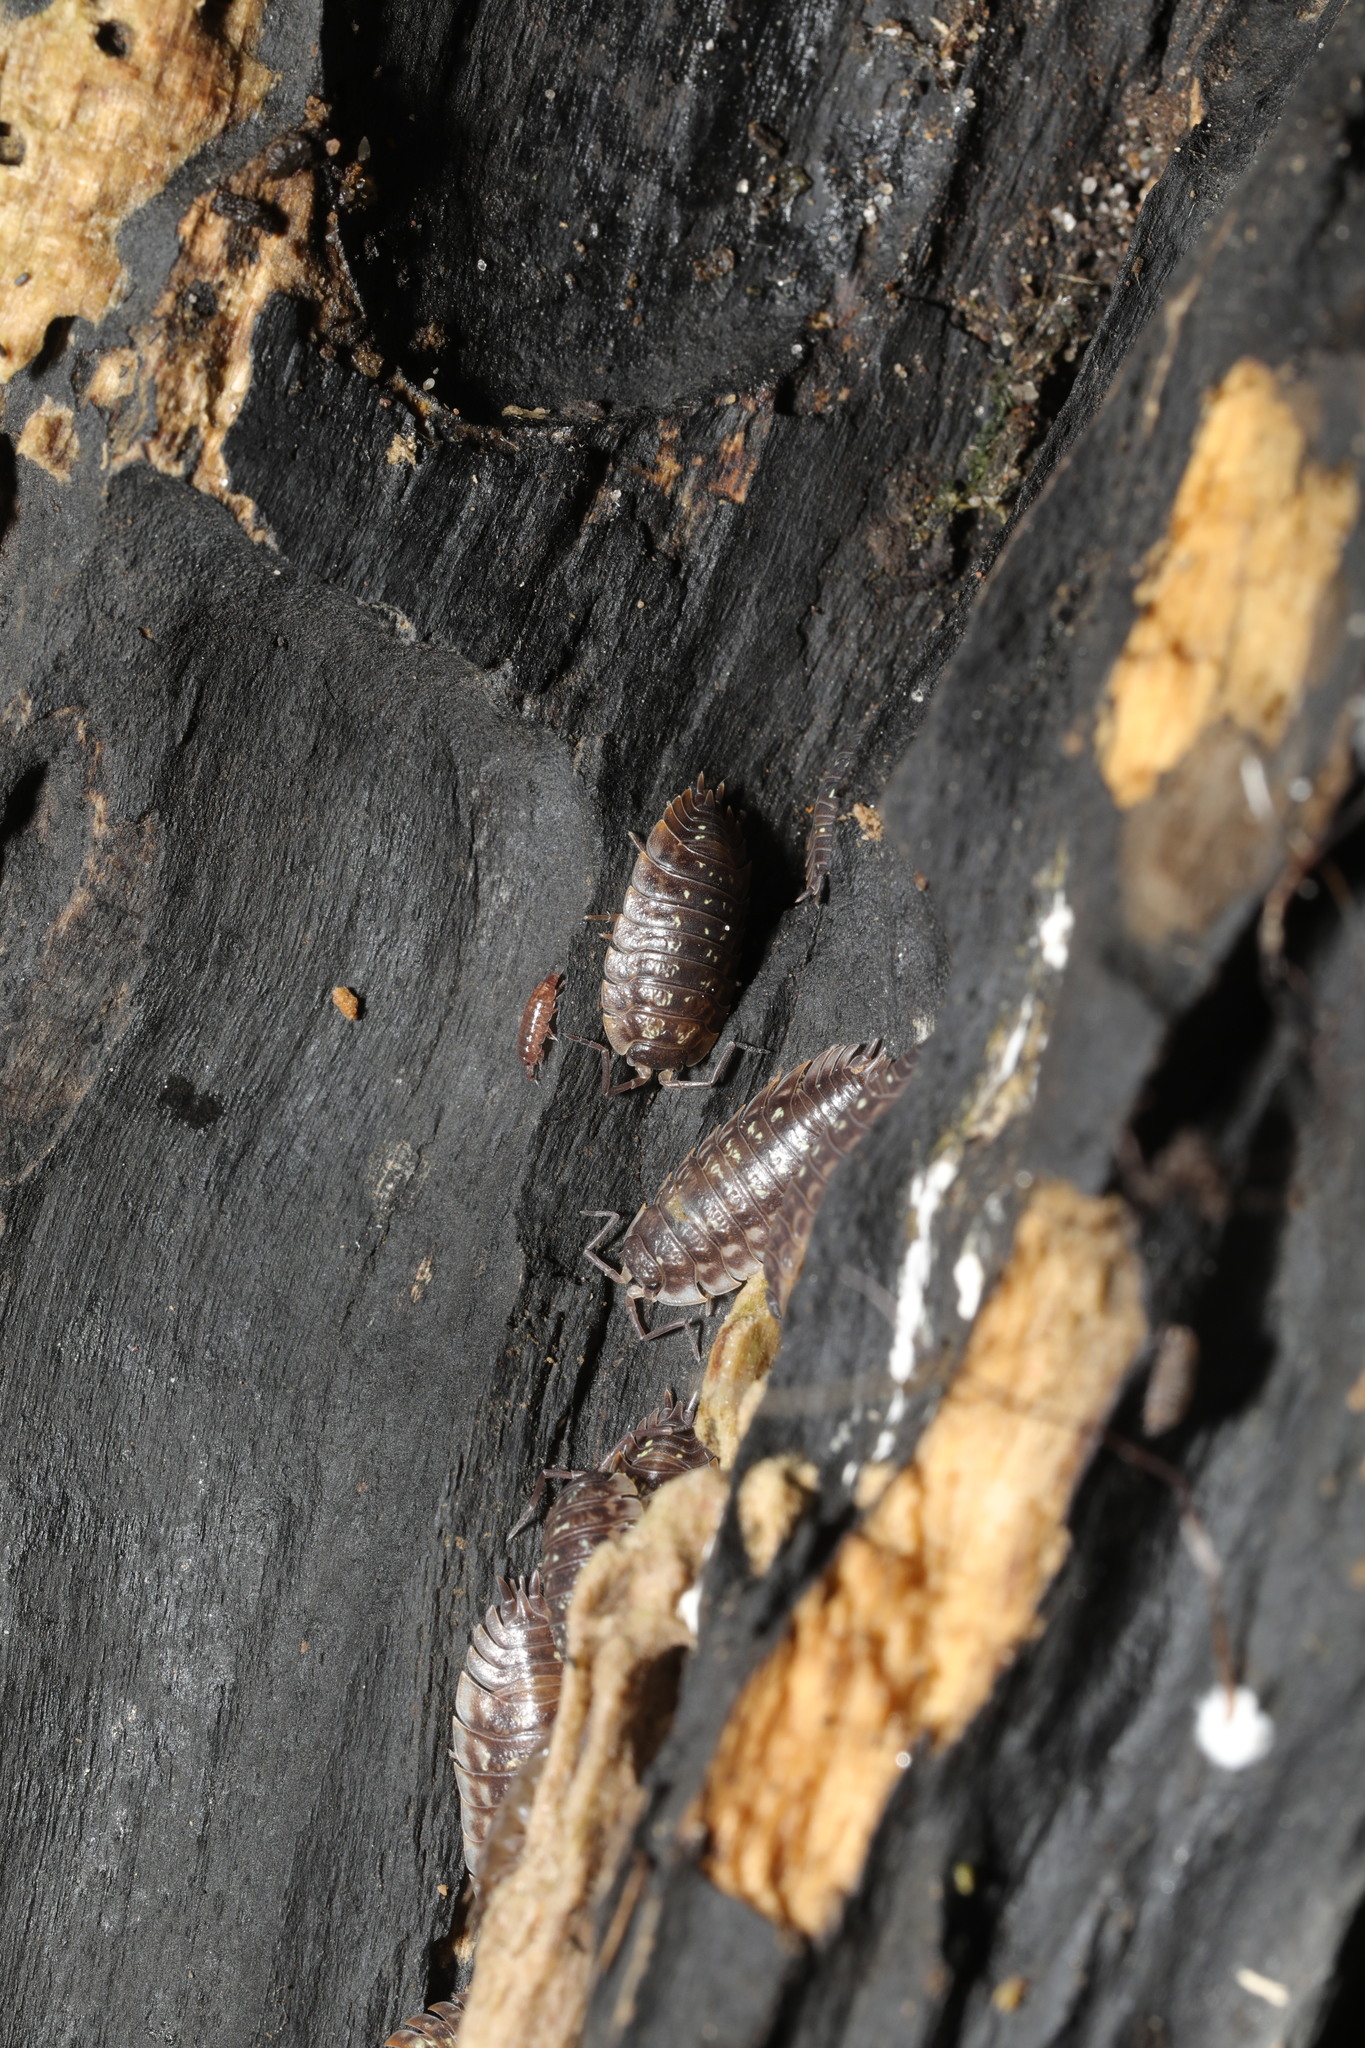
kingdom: Animalia
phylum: Arthropoda
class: Malacostraca
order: Isopoda
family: Oniscidae
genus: Oniscus
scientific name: Oniscus asellus
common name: Common shiny woodlouse
